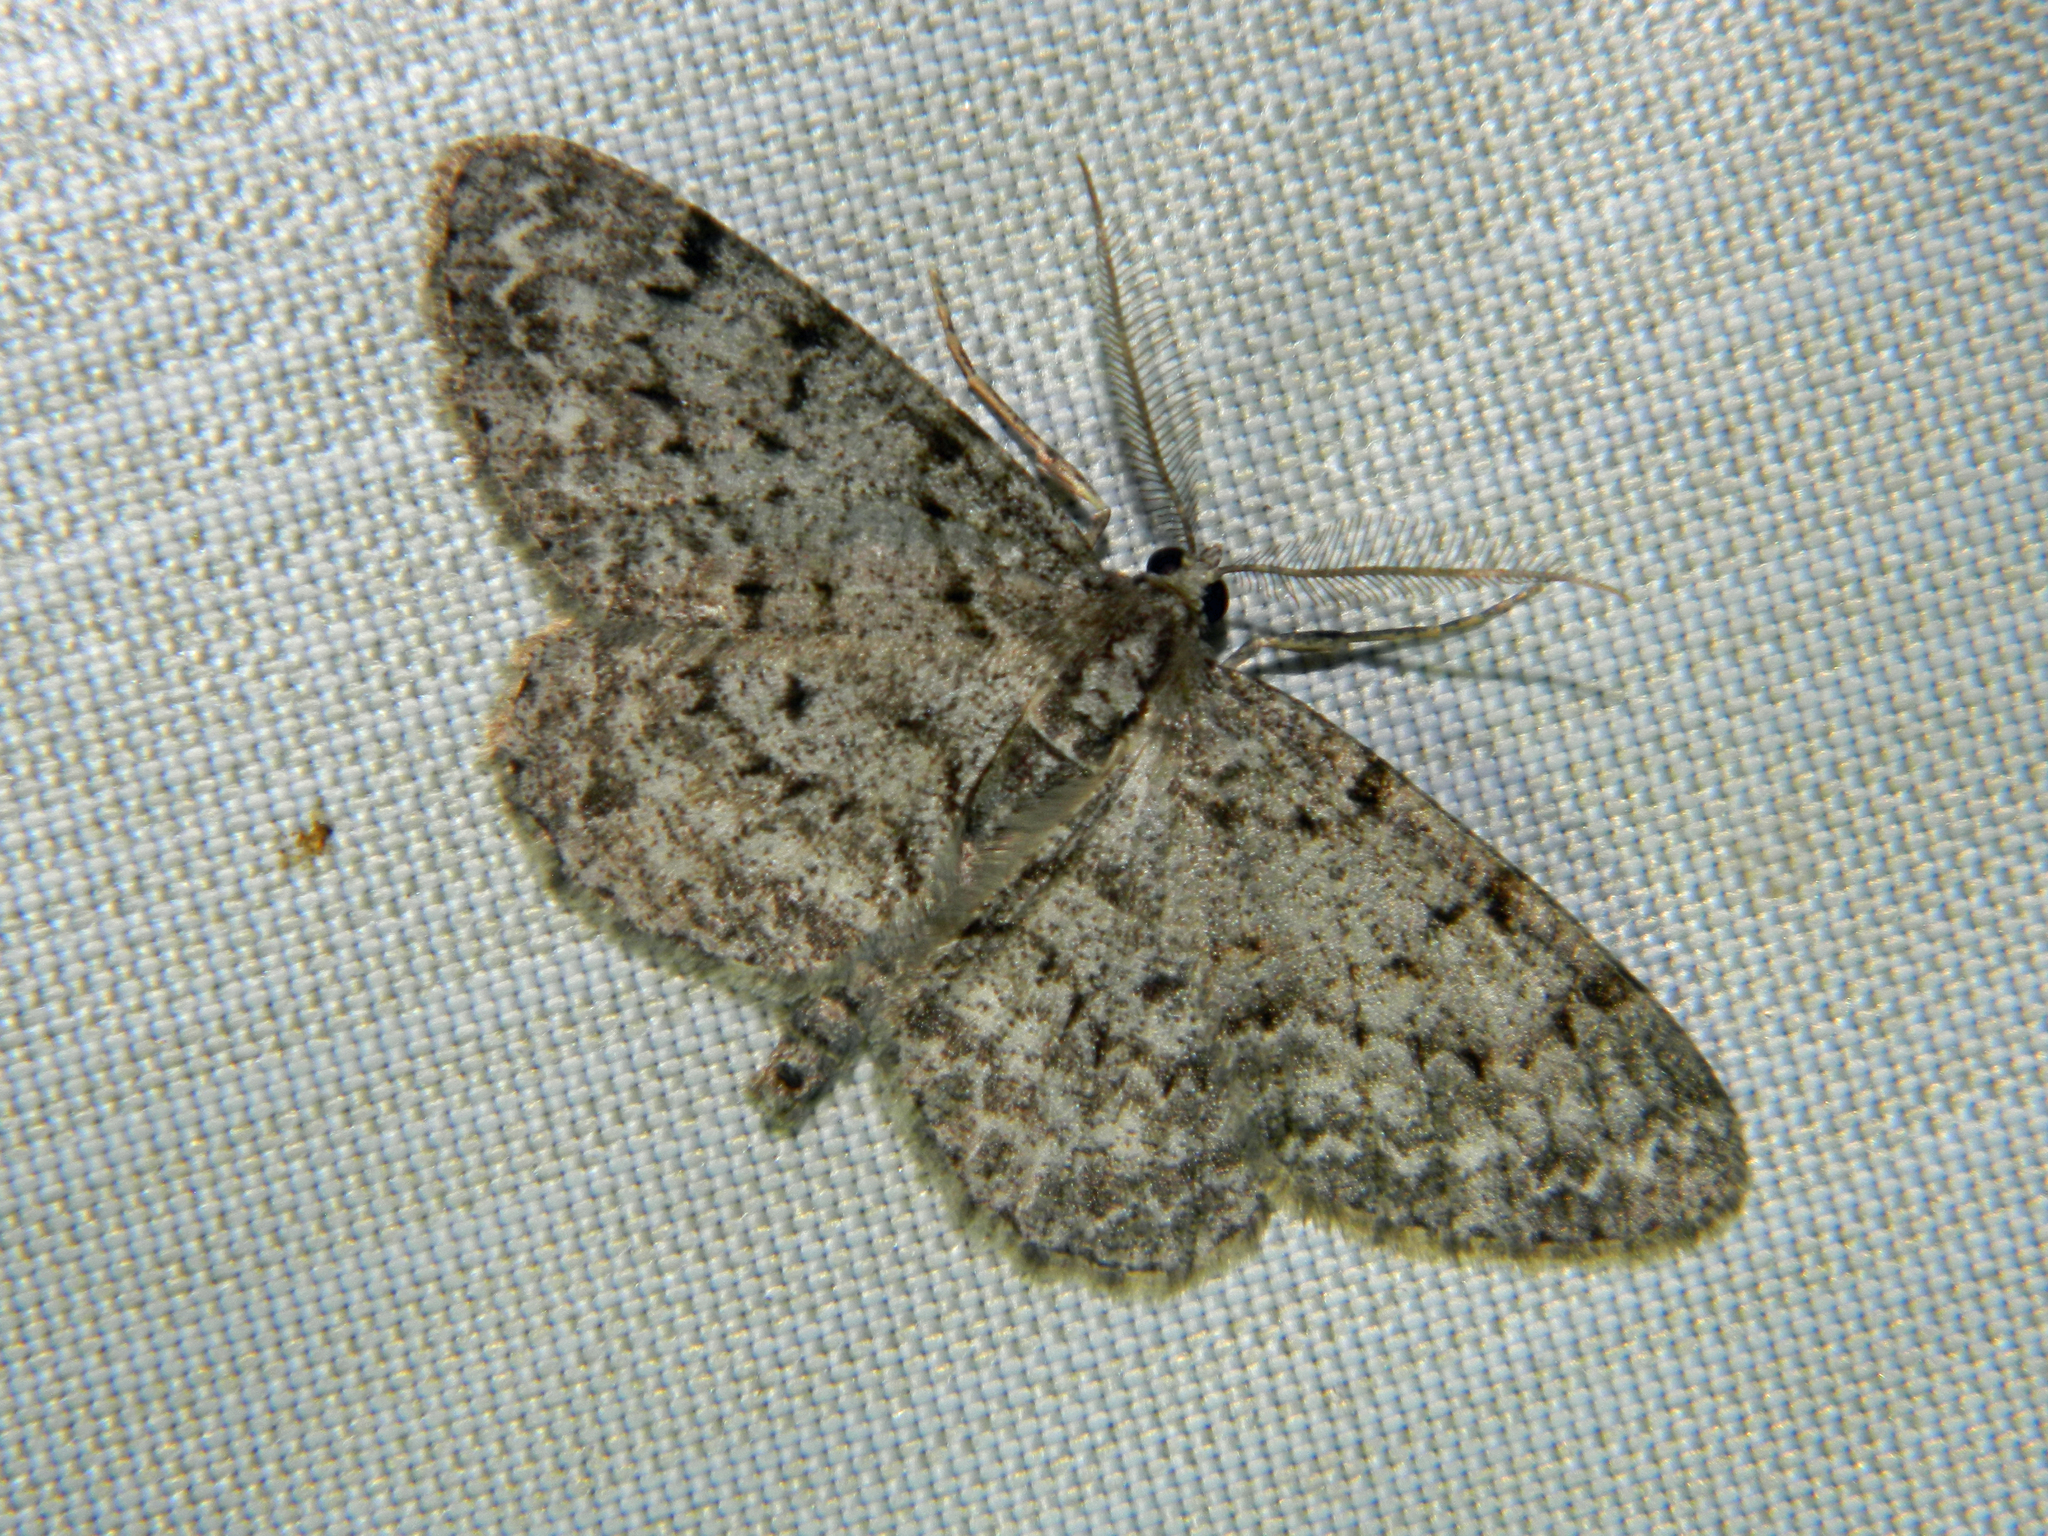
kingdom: Animalia
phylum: Arthropoda
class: Insecta
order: Lepidoptera
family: Geometridae
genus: Protoboarmia
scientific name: Protoboarmia porcelaria
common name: Porcelain gray
